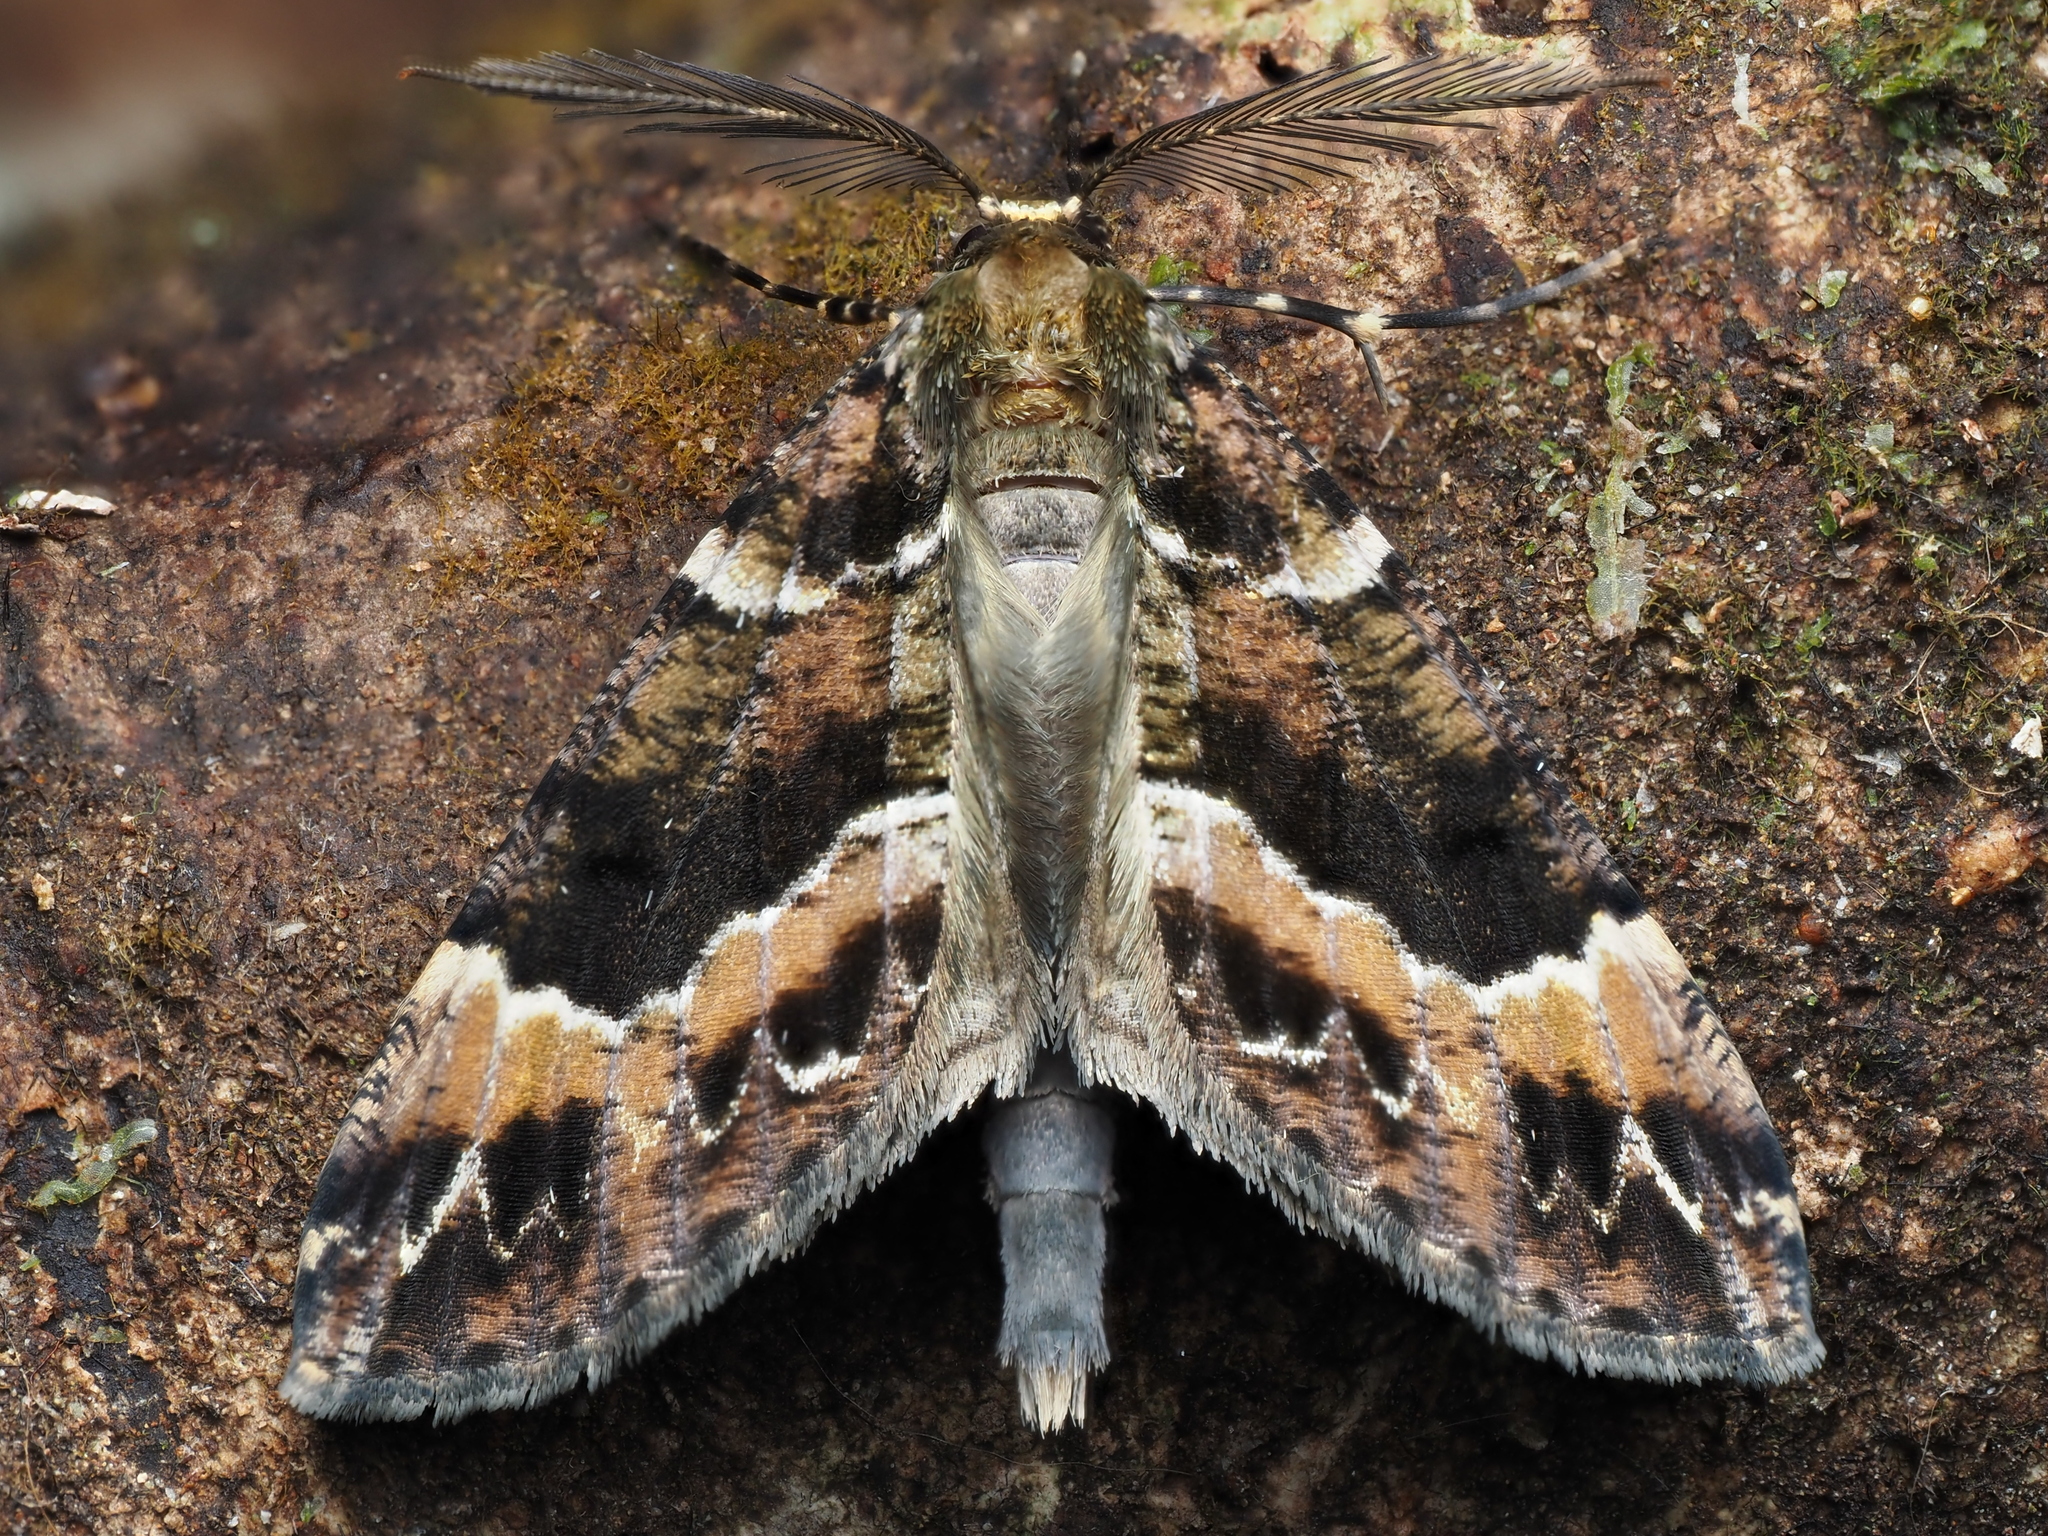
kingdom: Animalia
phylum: Arthropoda
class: Insecta
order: Lepidoptera
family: Geometridae
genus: Pseudocoremia
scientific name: Pseudocoremia productata
